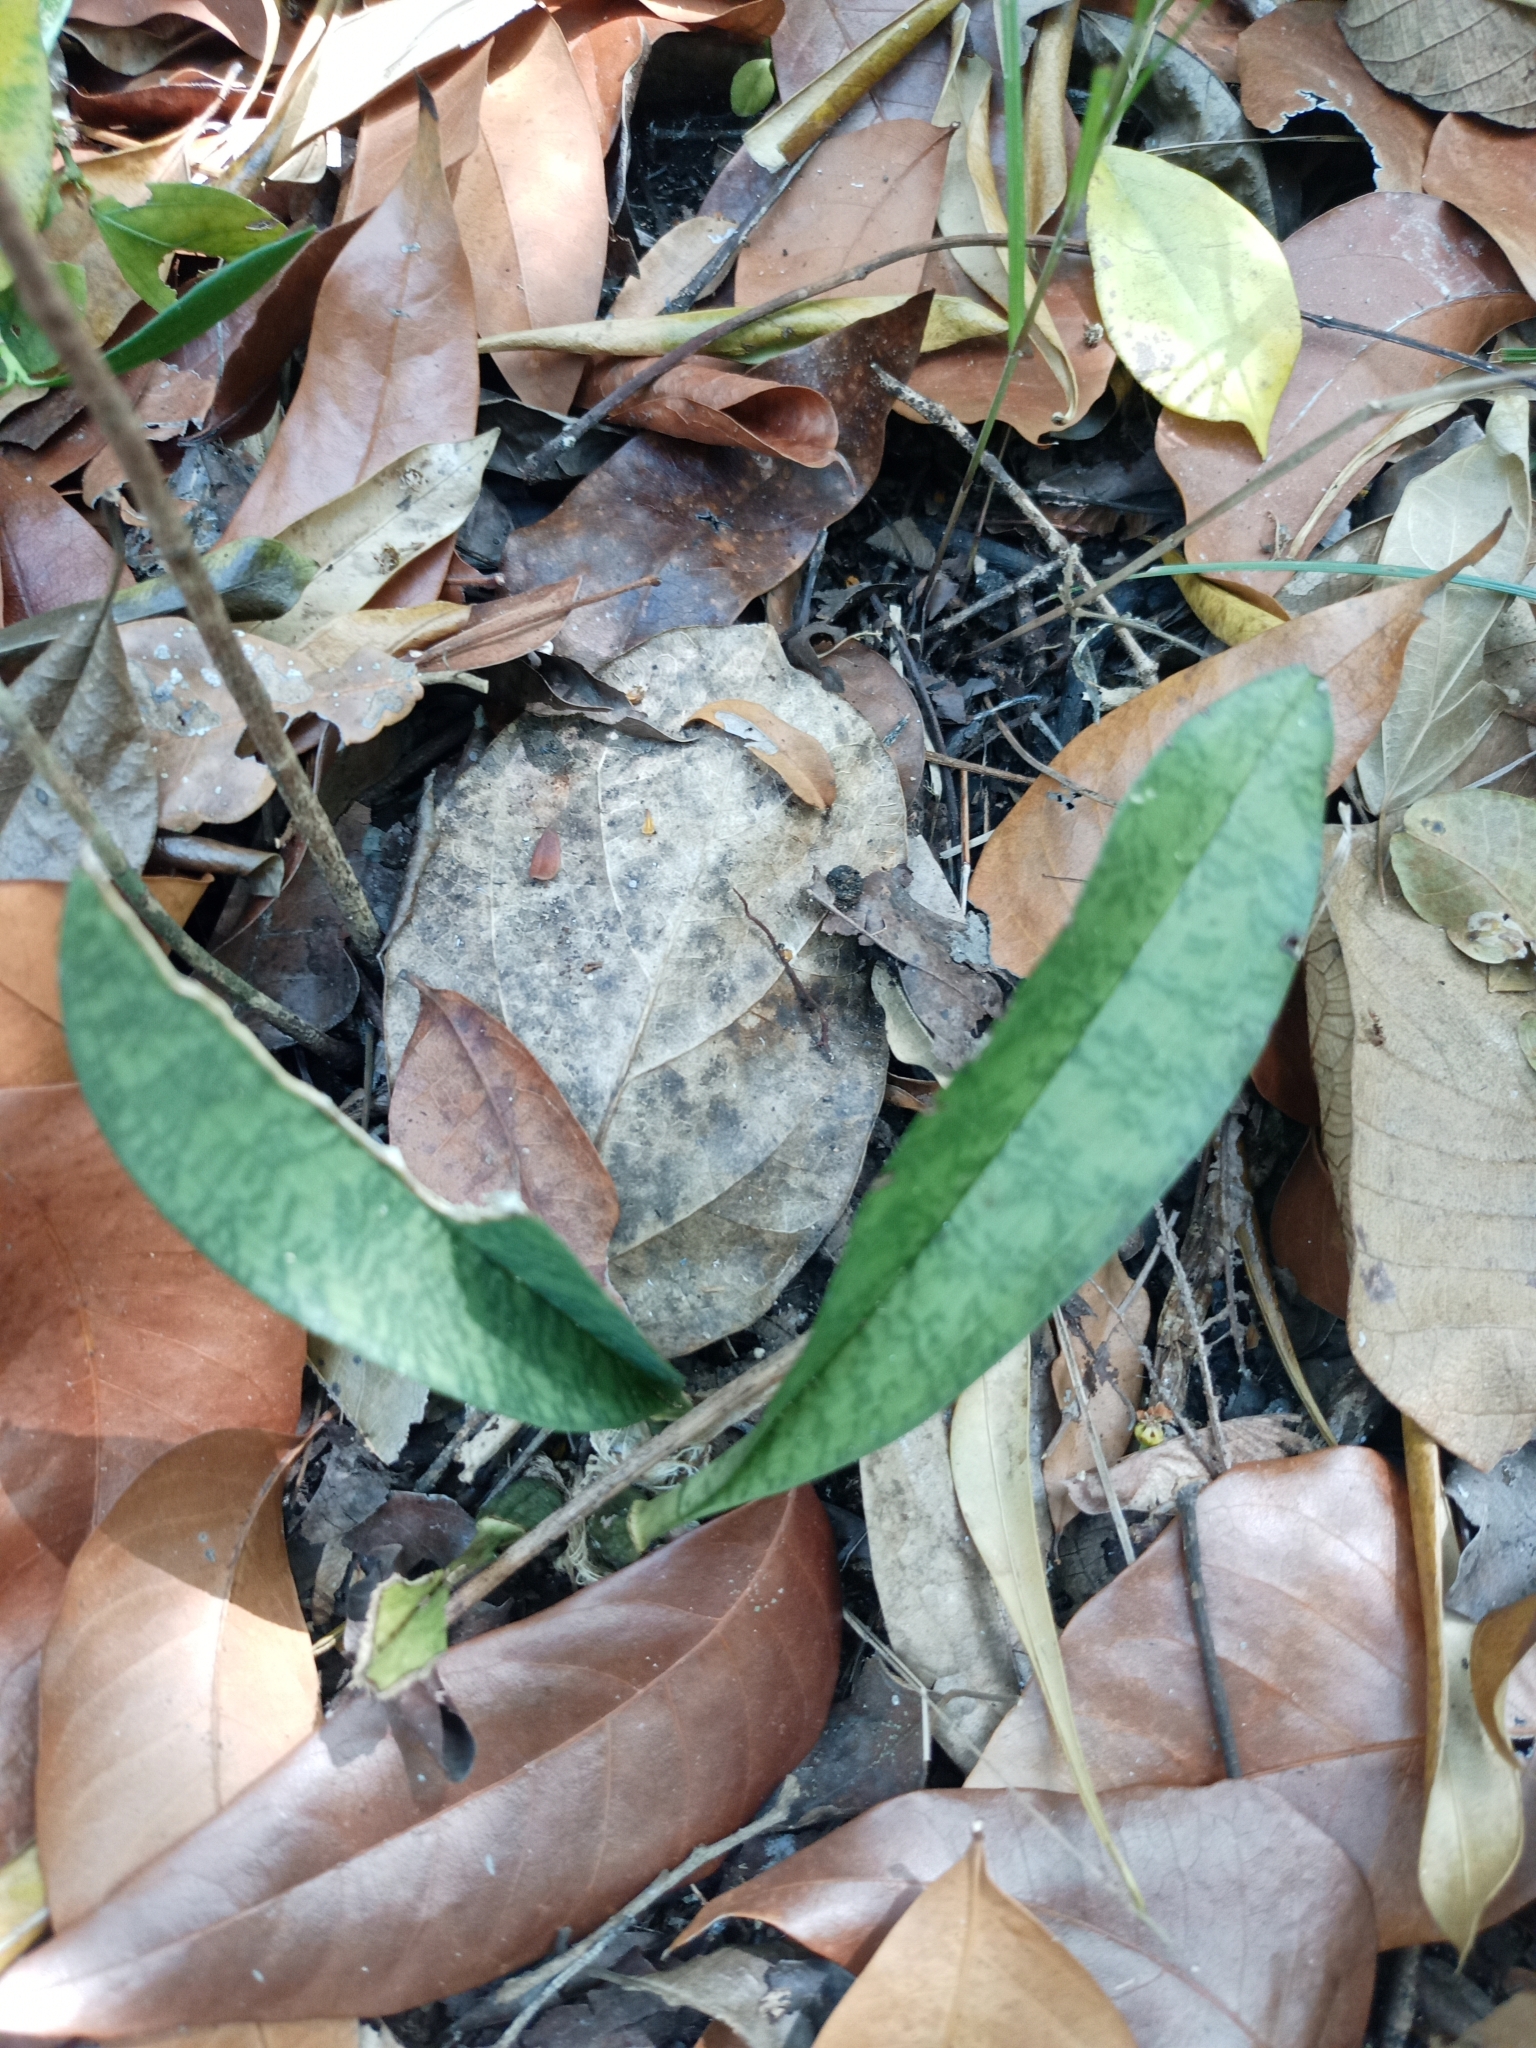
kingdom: Plantae
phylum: Tracheophyta
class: Liliopsida
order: Asparagales
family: Orchidaceae
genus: Eulophia
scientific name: Eulophia maculata
